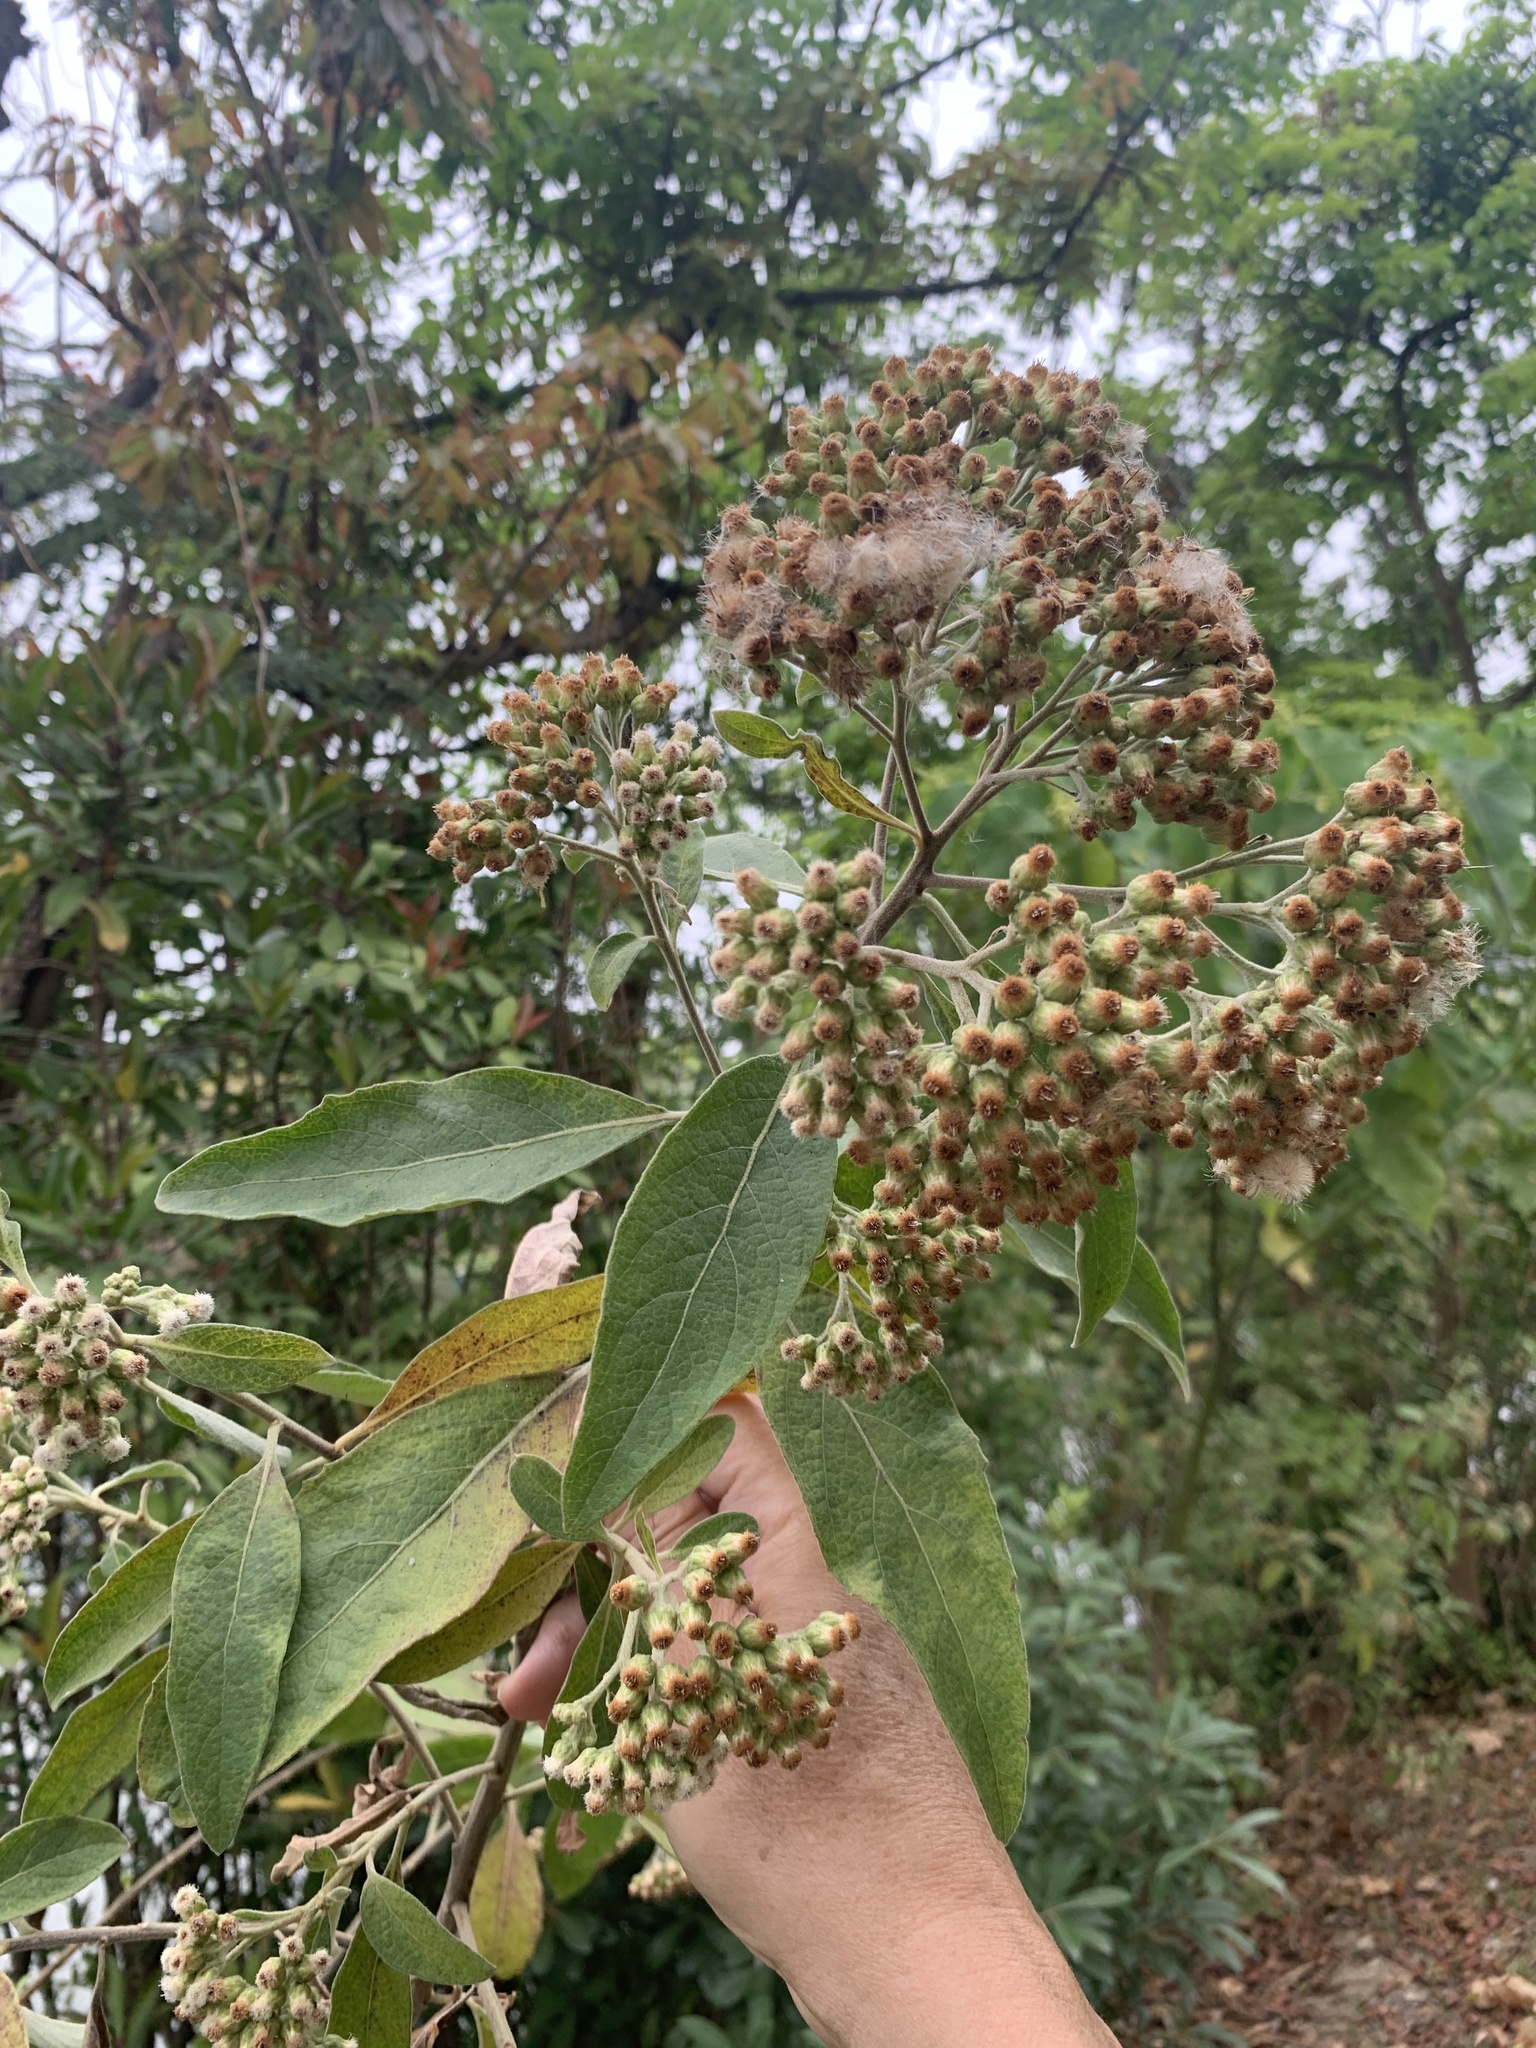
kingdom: Plantae
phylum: Tracheophyta
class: Magnoliopsida
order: Asterales
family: Asteraceae
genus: Pluchea
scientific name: Pluchea carolinensis
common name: Marsh fleabane
